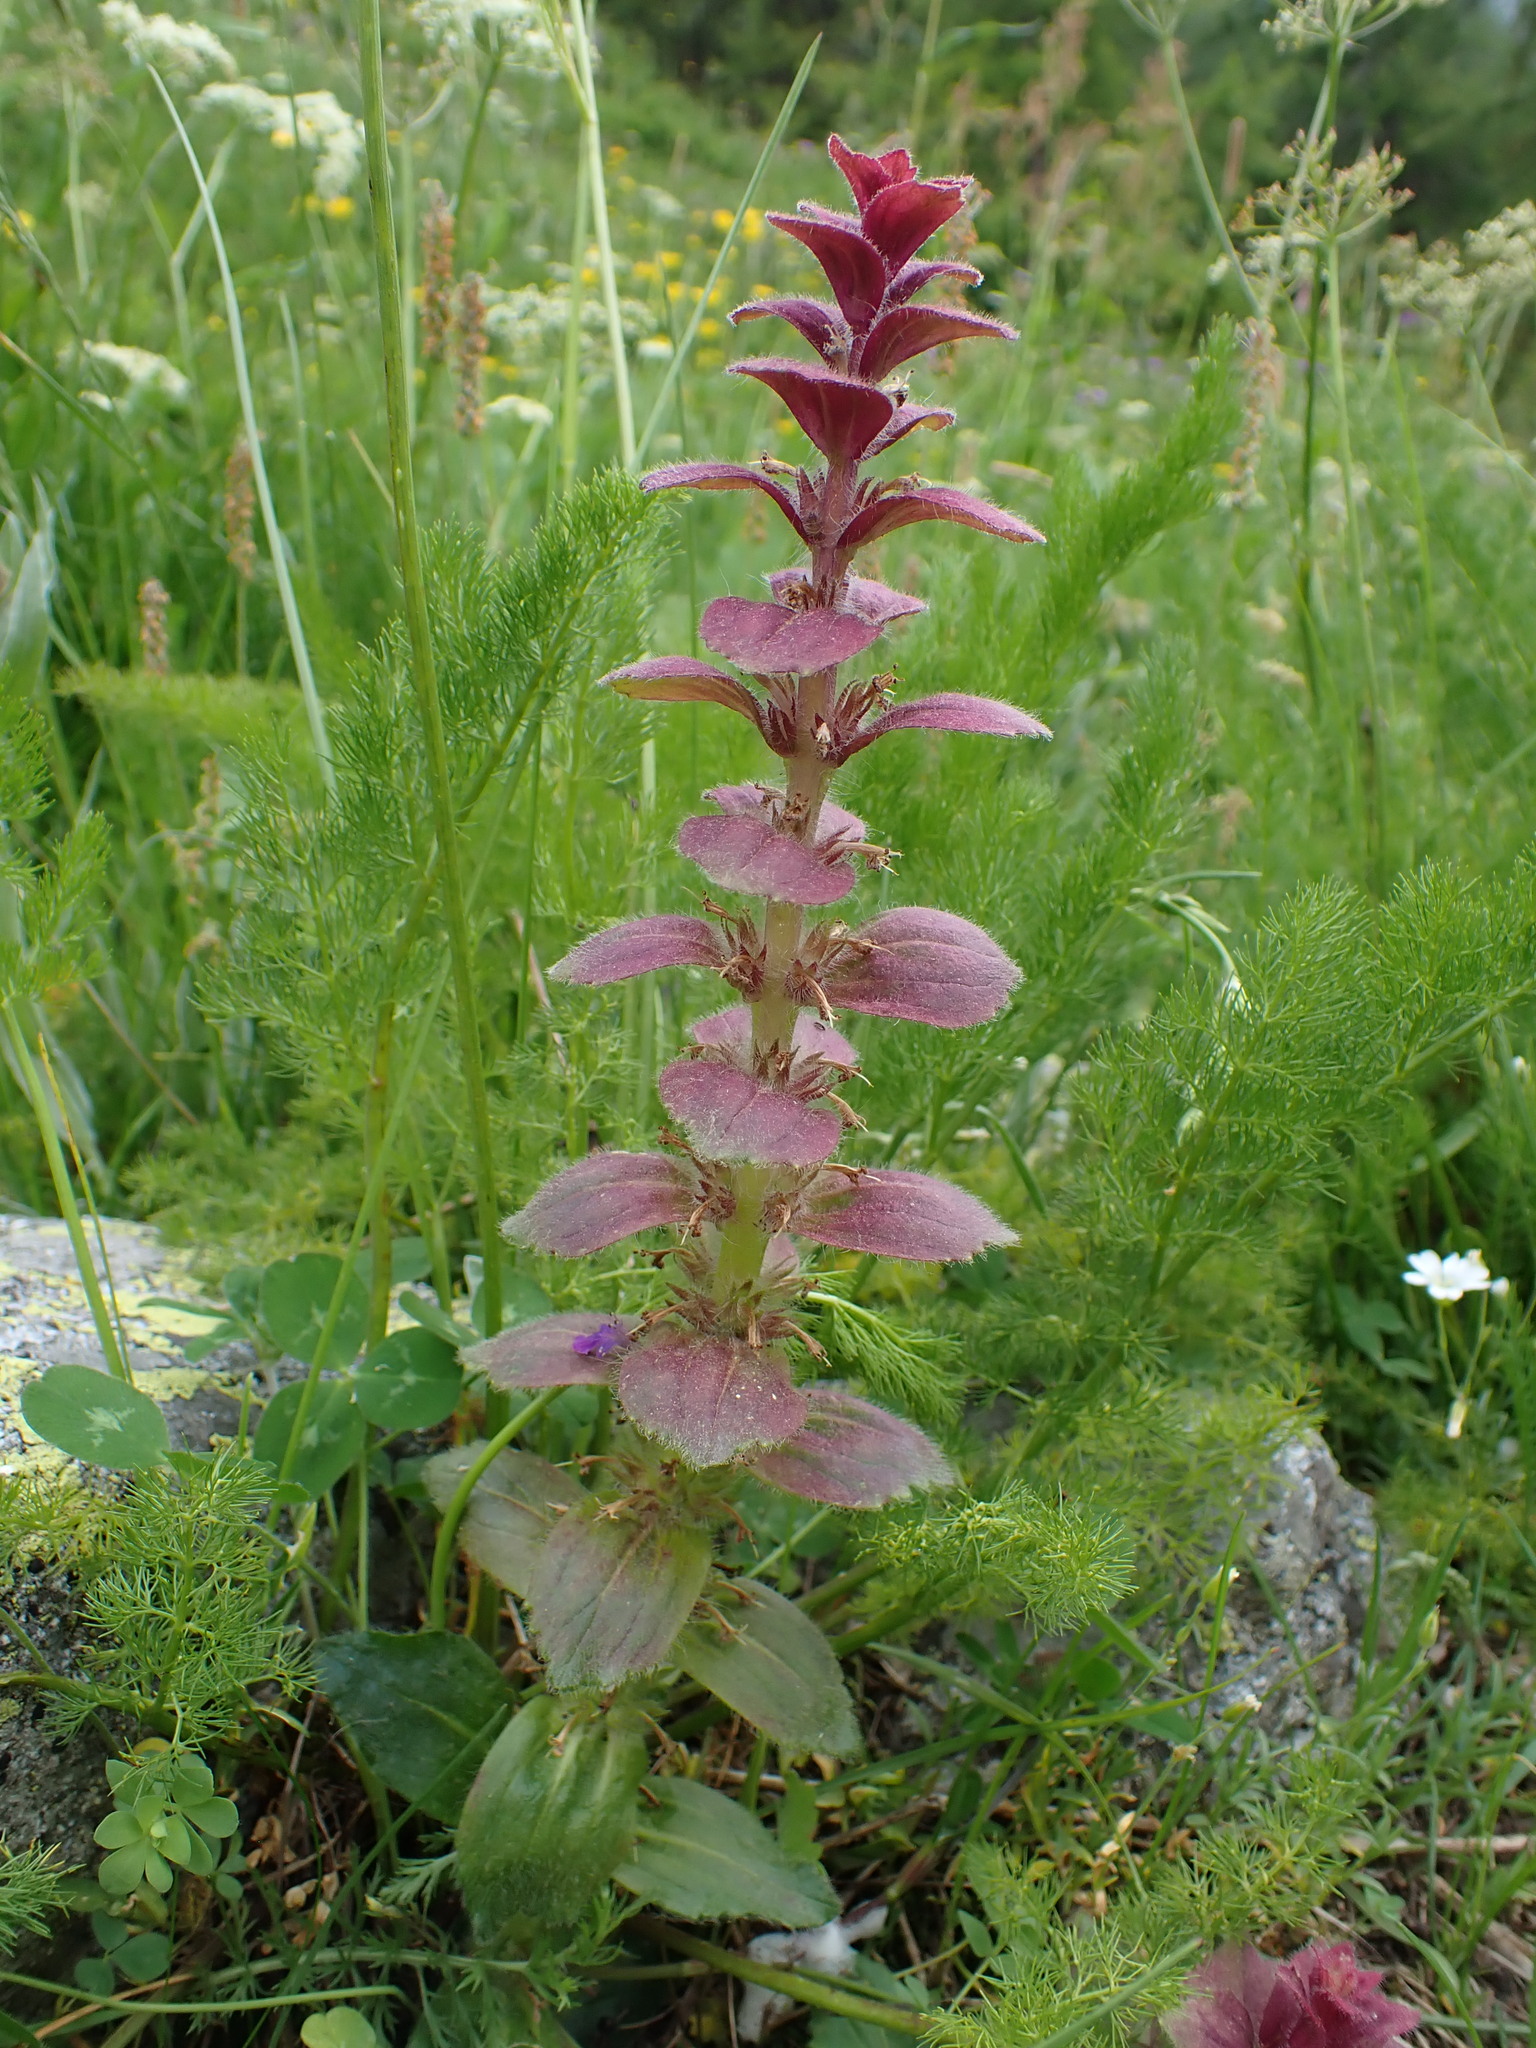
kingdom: Plantae
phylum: Tracheophyta
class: Magnoliopsida
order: Lamiales
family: Lamiaceae
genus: Ajuga
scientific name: Ajuga pyramidalis
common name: Pyramid bugle
